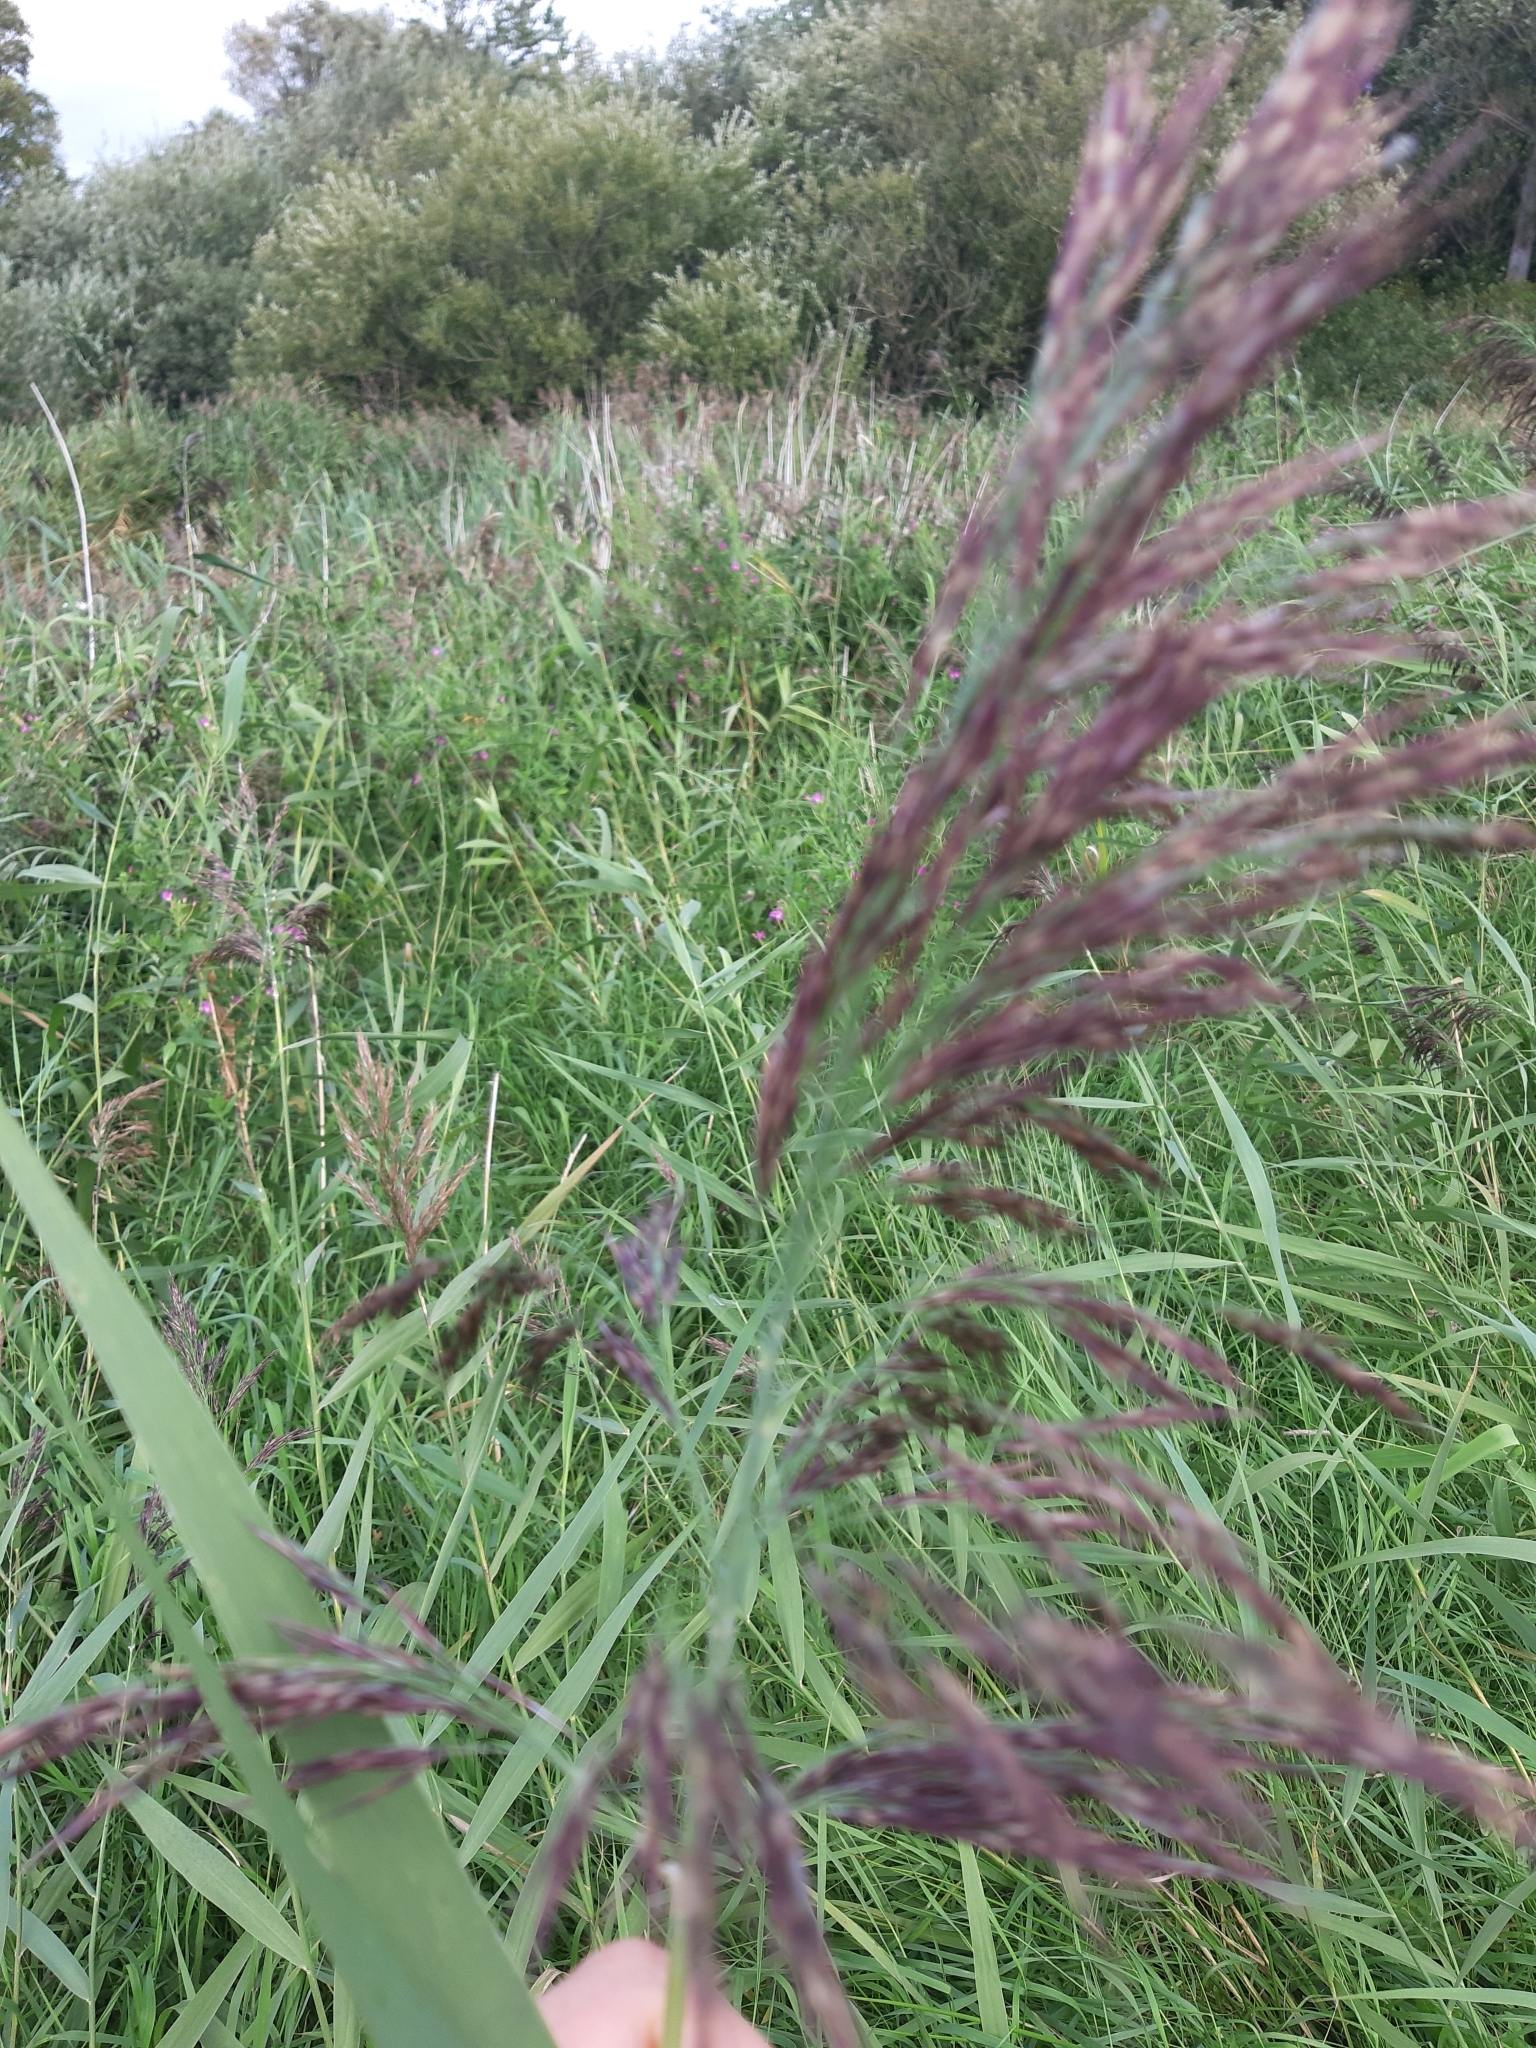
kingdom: Plantae
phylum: Tracheophyta
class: Liliopsida
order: Poales
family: Poaceae
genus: Phragmites
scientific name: Phragmites australis
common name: Common reed
